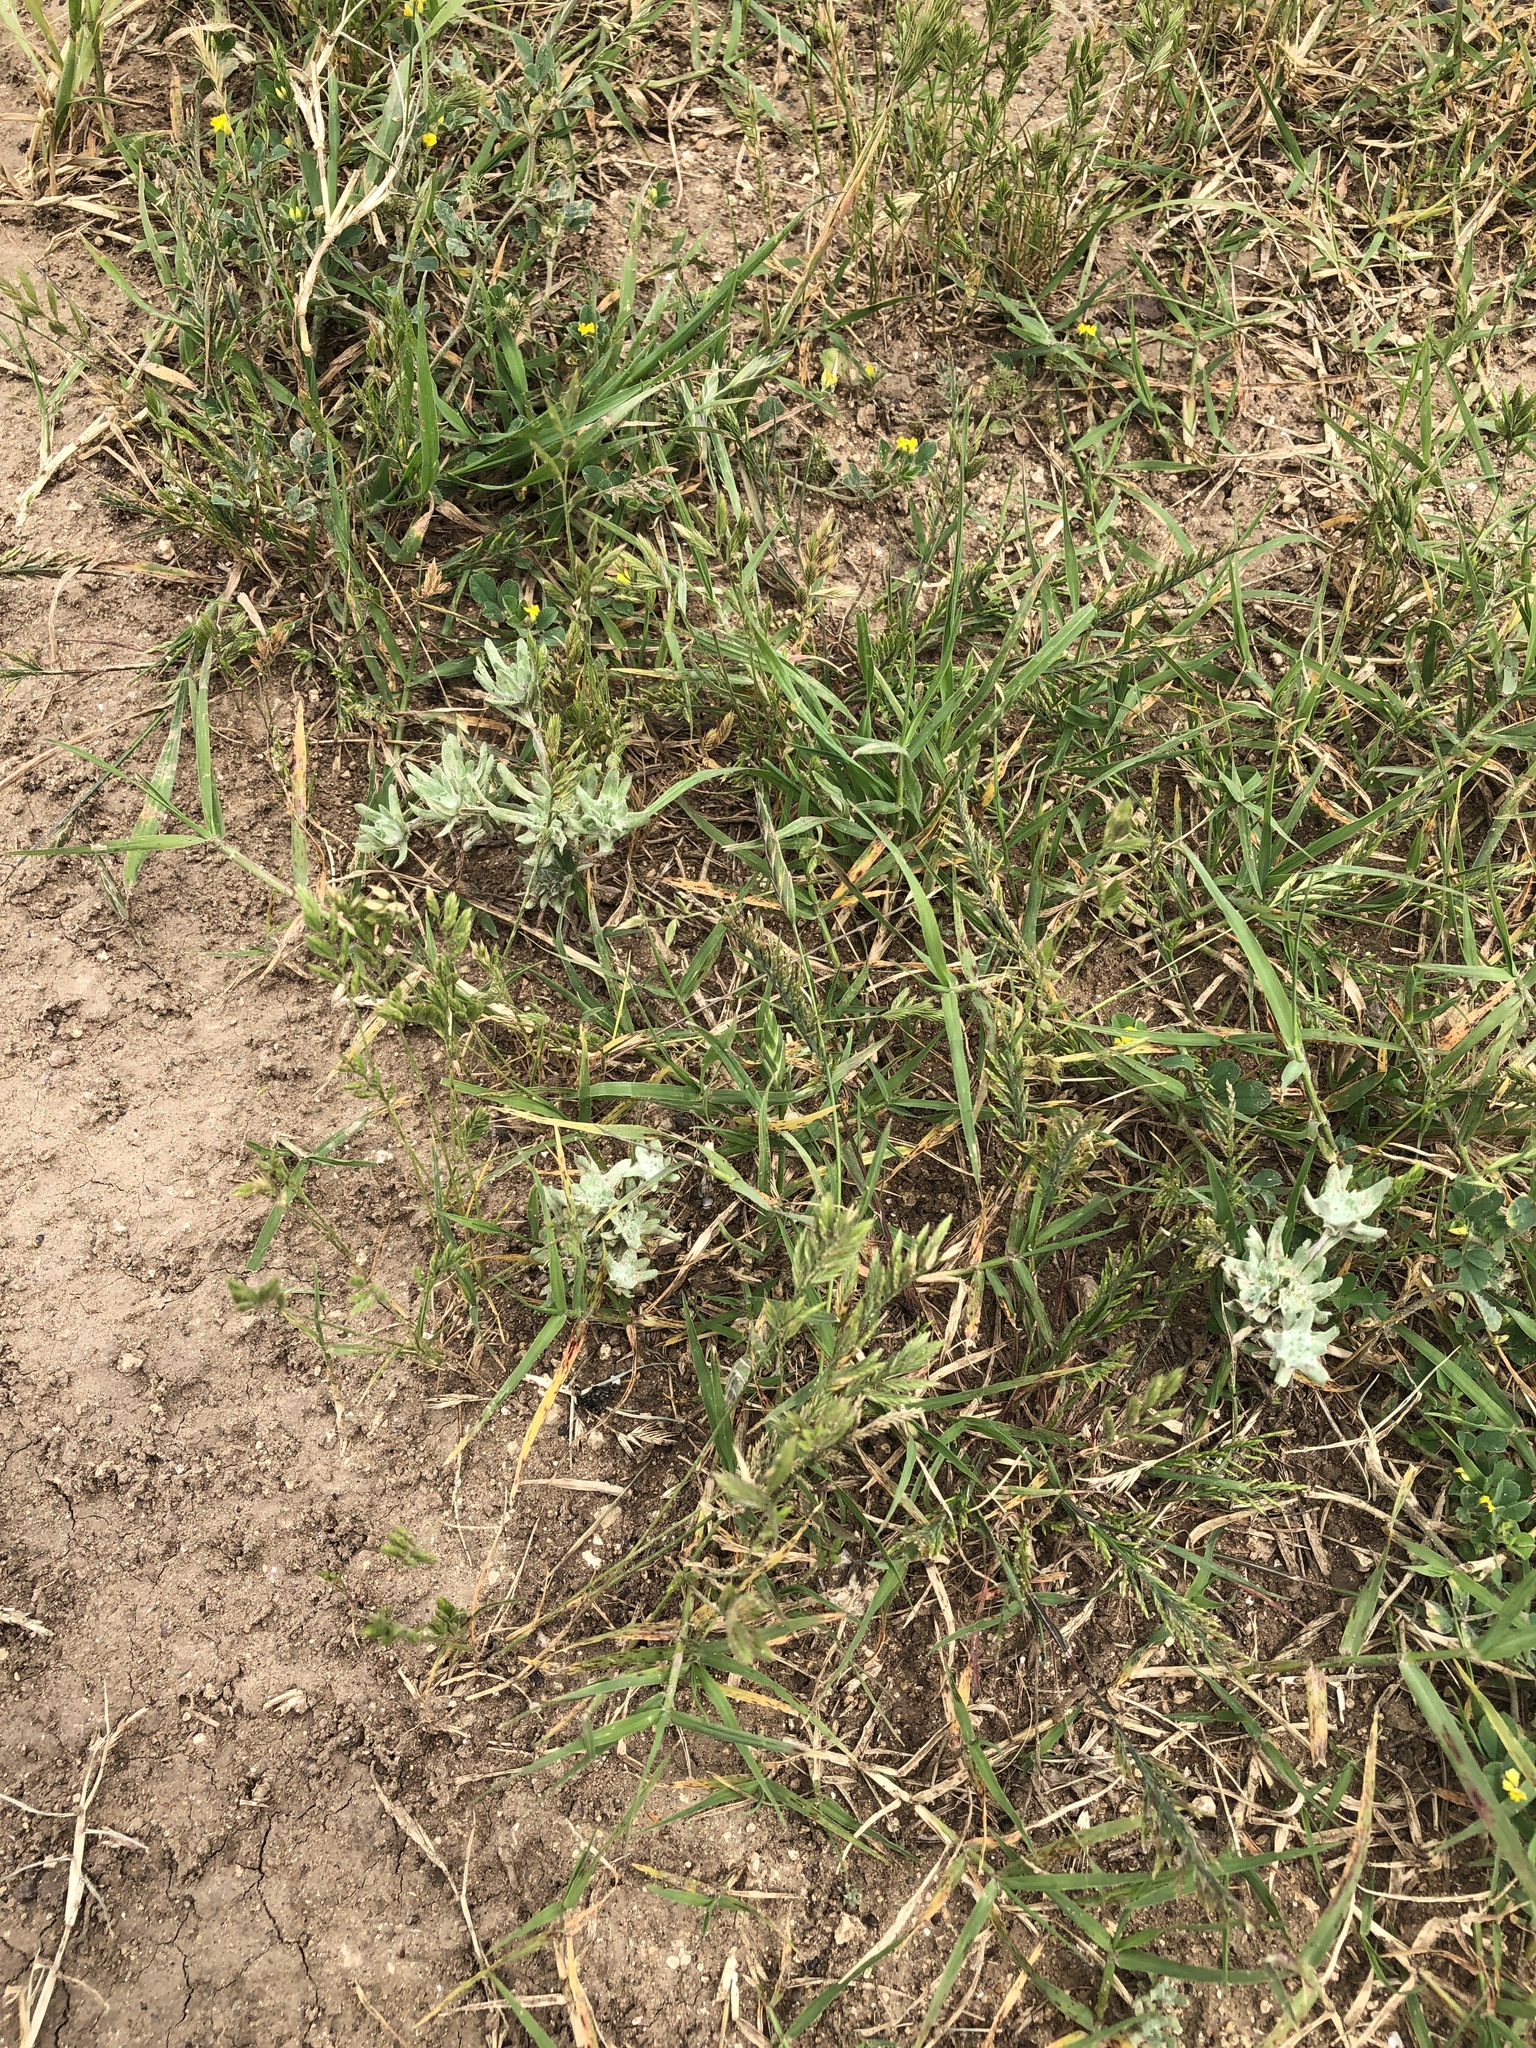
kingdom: Plantae
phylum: Tracheophyta
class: Liliopsida
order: Poales
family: Poaceae
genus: Bromus
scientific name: Bromus catharticus
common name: Rescuegrass
